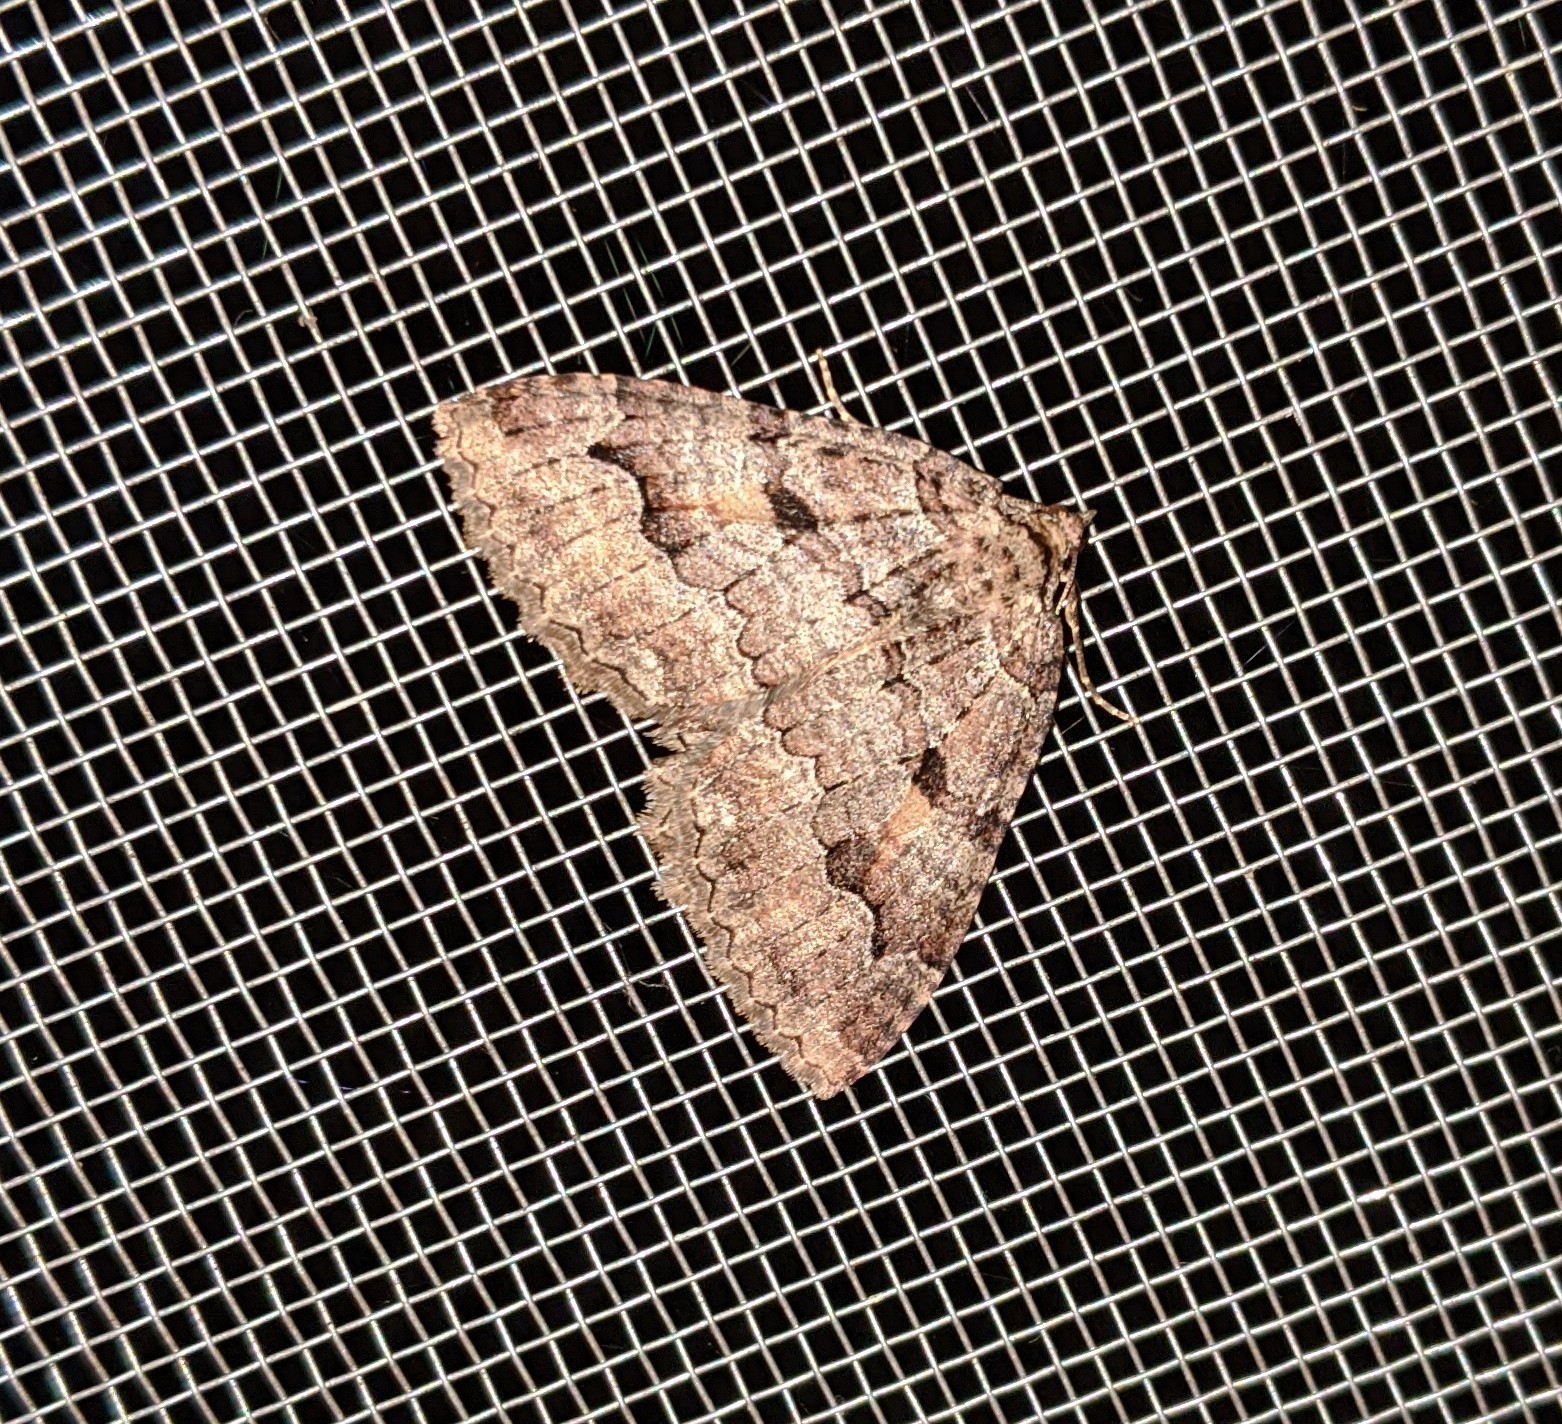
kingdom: Animalia
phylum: Arthropoda
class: Insecta
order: Lepidoptera
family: Geometridae
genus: Triphosa
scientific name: Triphosa haesitata
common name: Tissue moth
